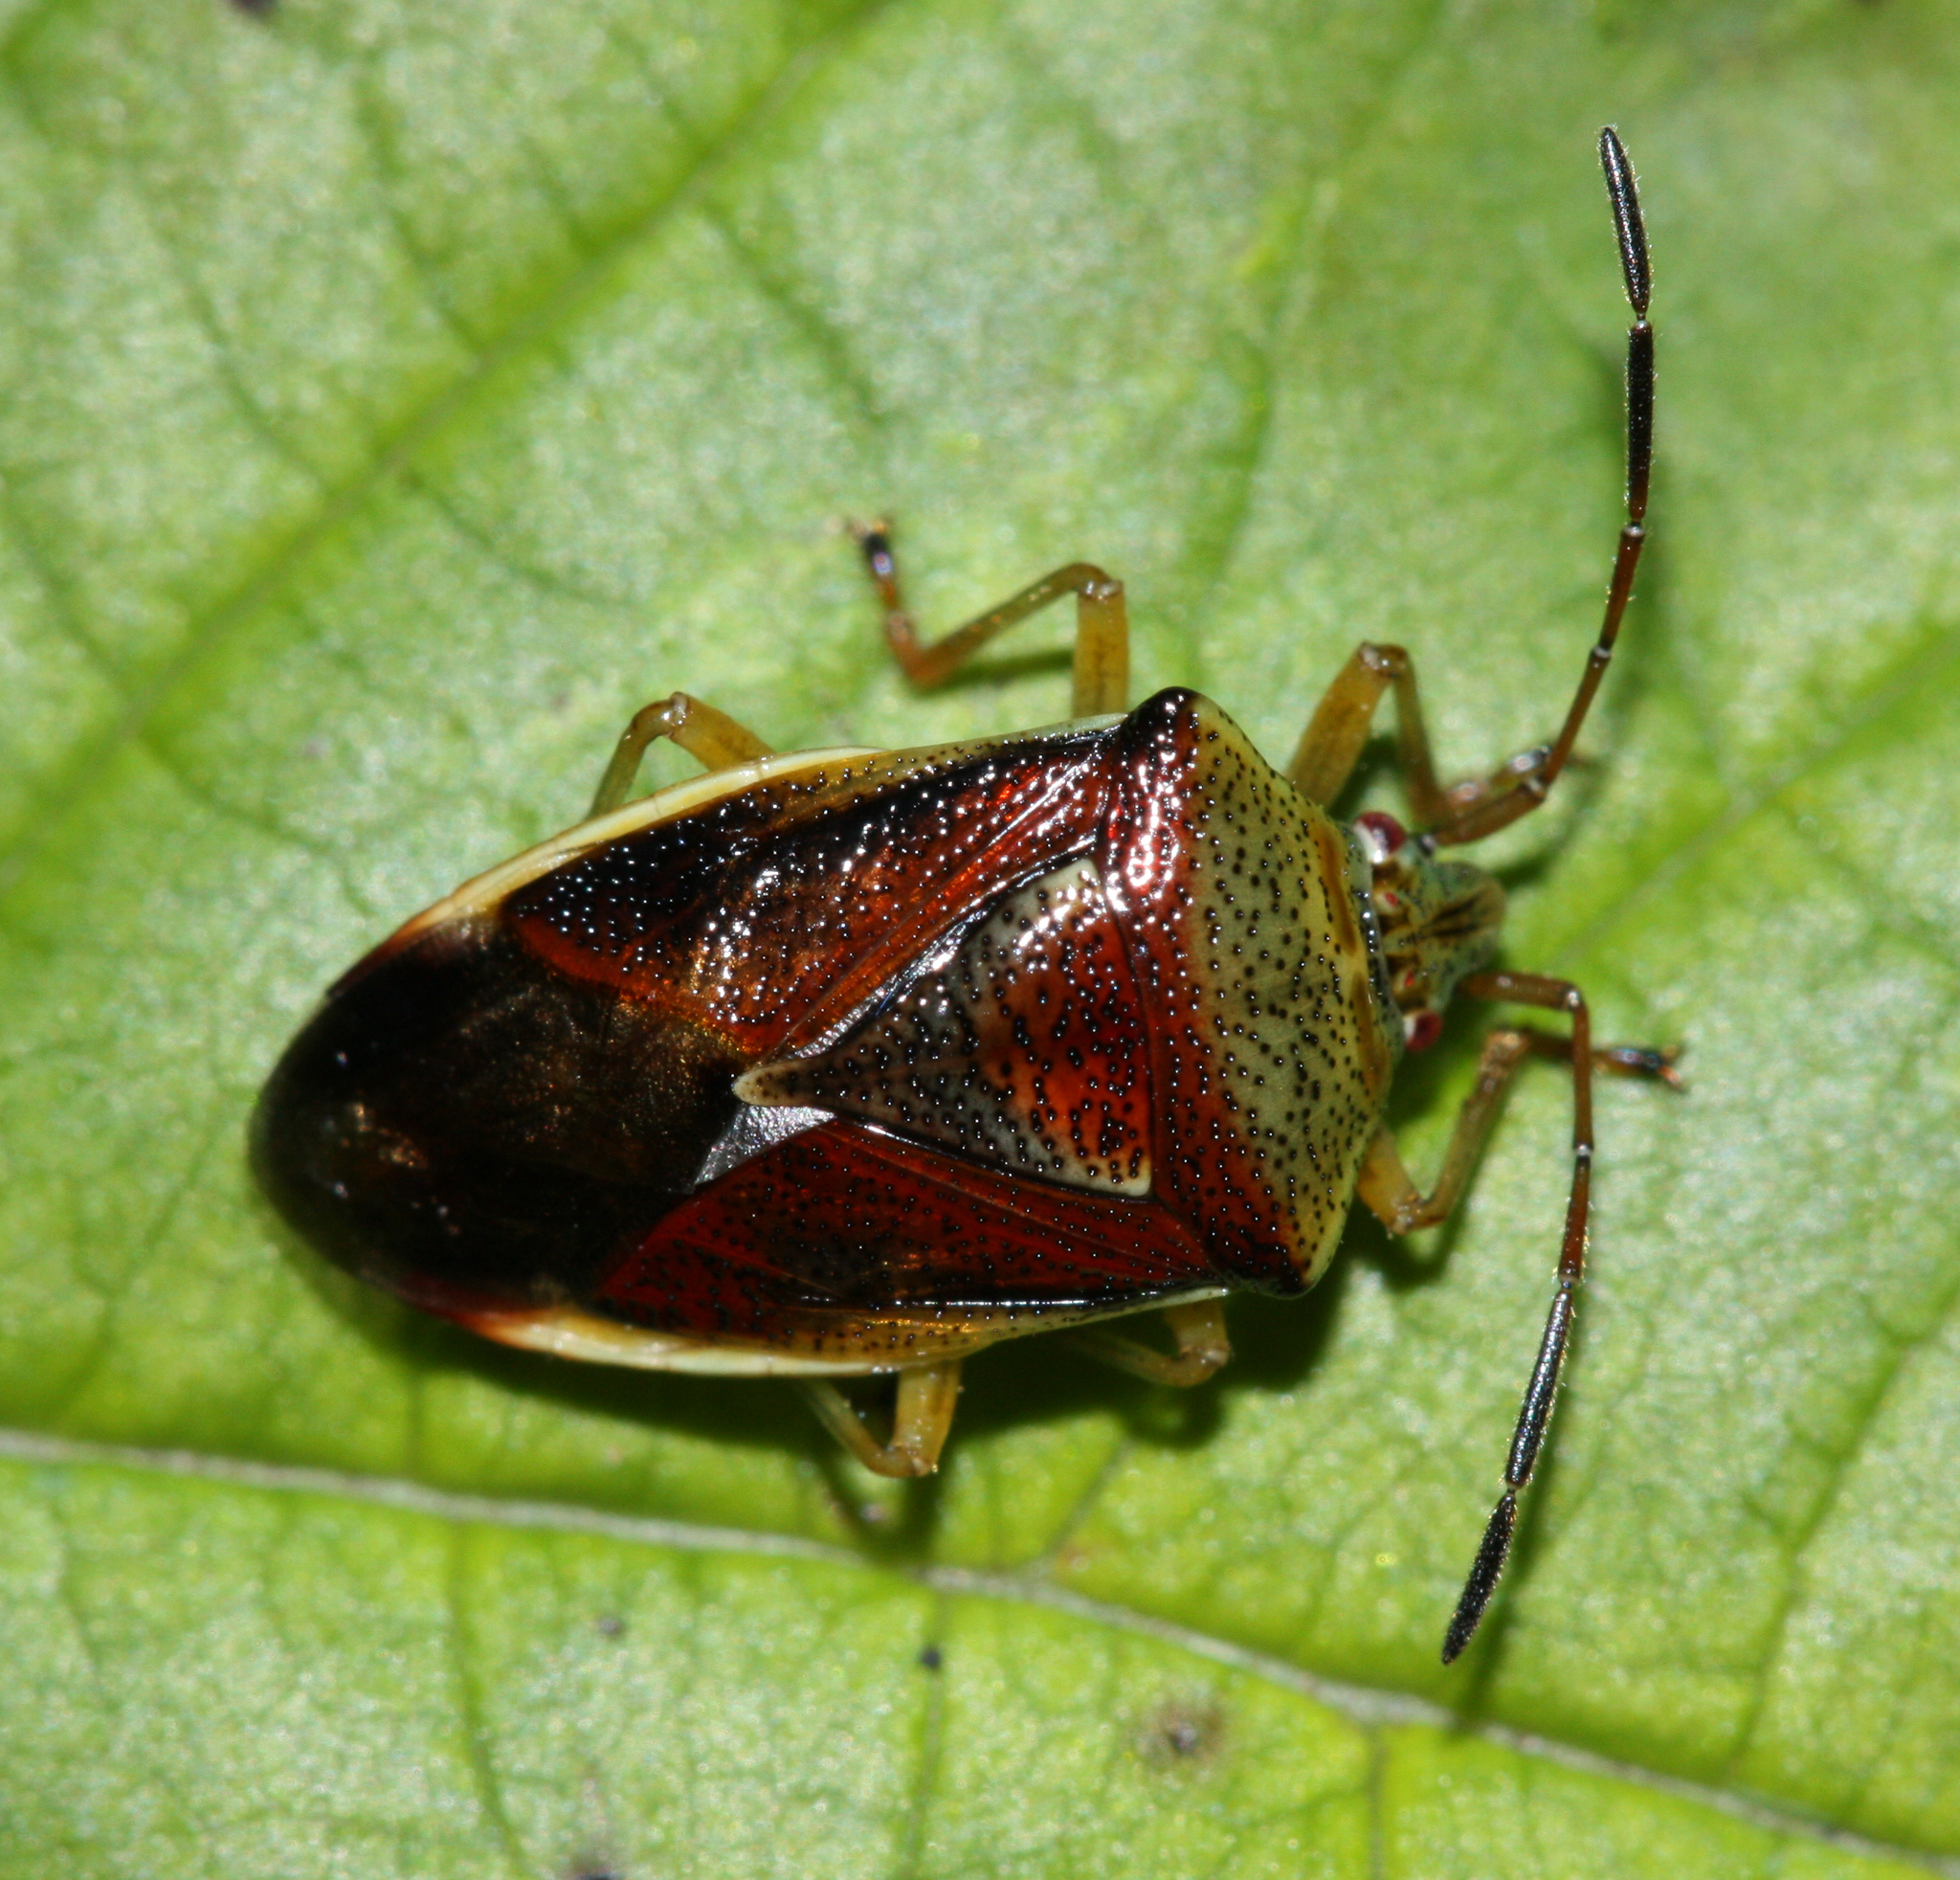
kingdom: Animalia
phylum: Arthropoda
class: Insecta
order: Hemiptera
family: Acanthosomatidae
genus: Elasmostethus
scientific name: Elasmostethus interstinctus
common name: Birch shieldbug
